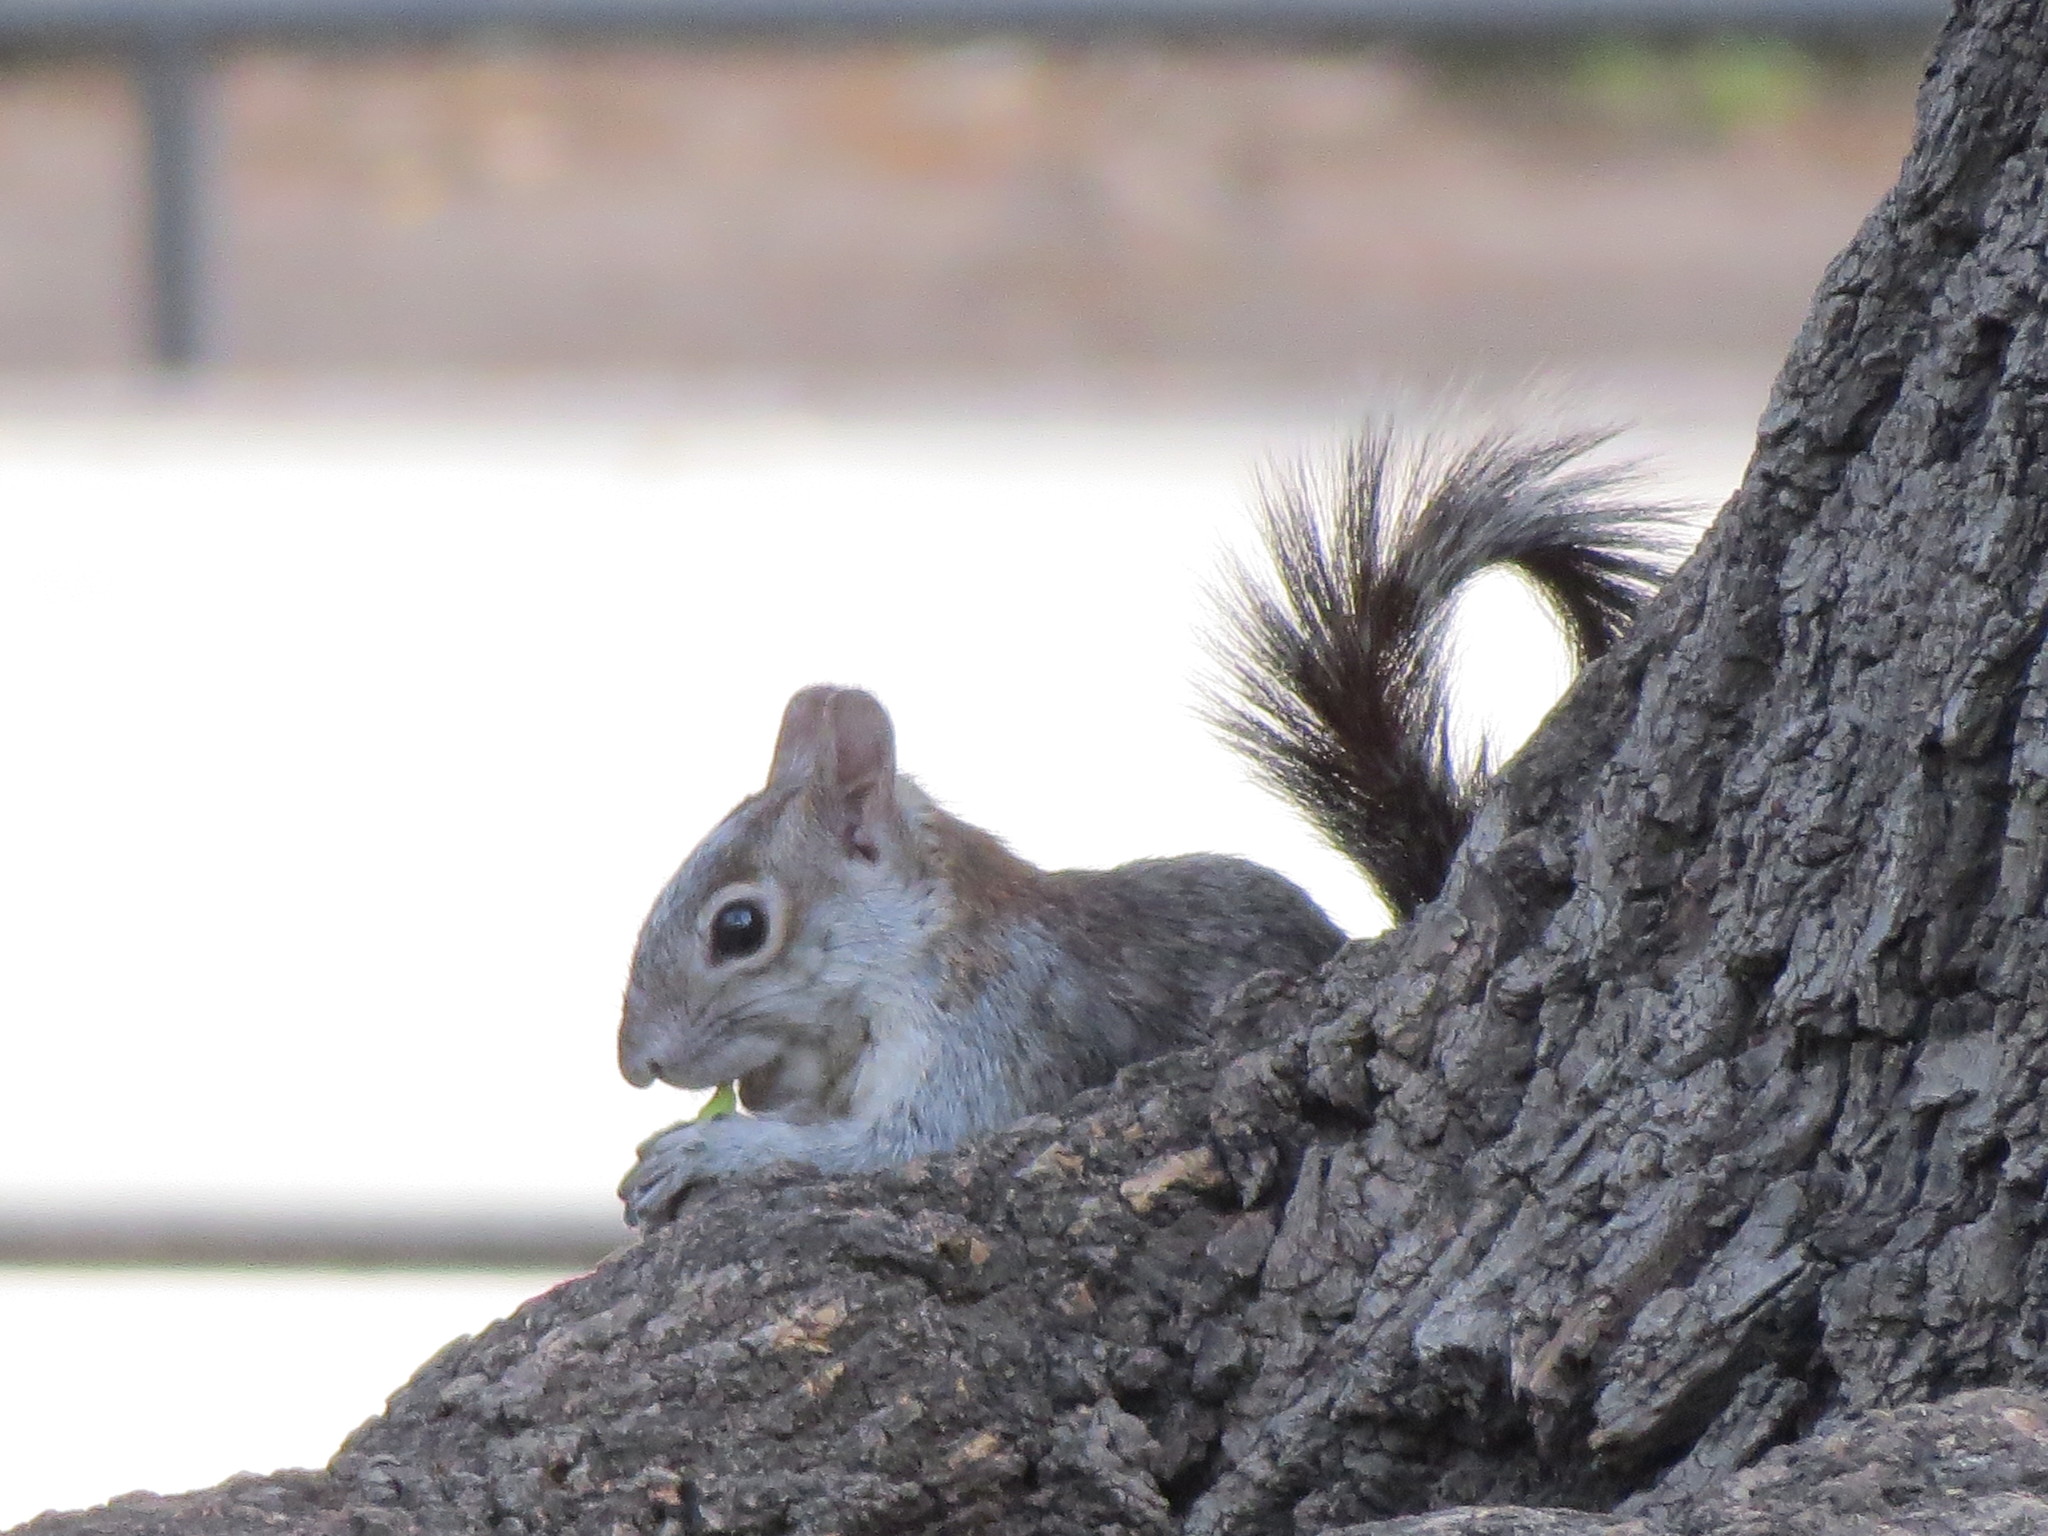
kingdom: Animalia
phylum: Chordata
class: Mammalia
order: Rodentia
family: Sciuridae
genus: Sciurus
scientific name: Sciurus aureogaster
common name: Red-bellied squirrel
